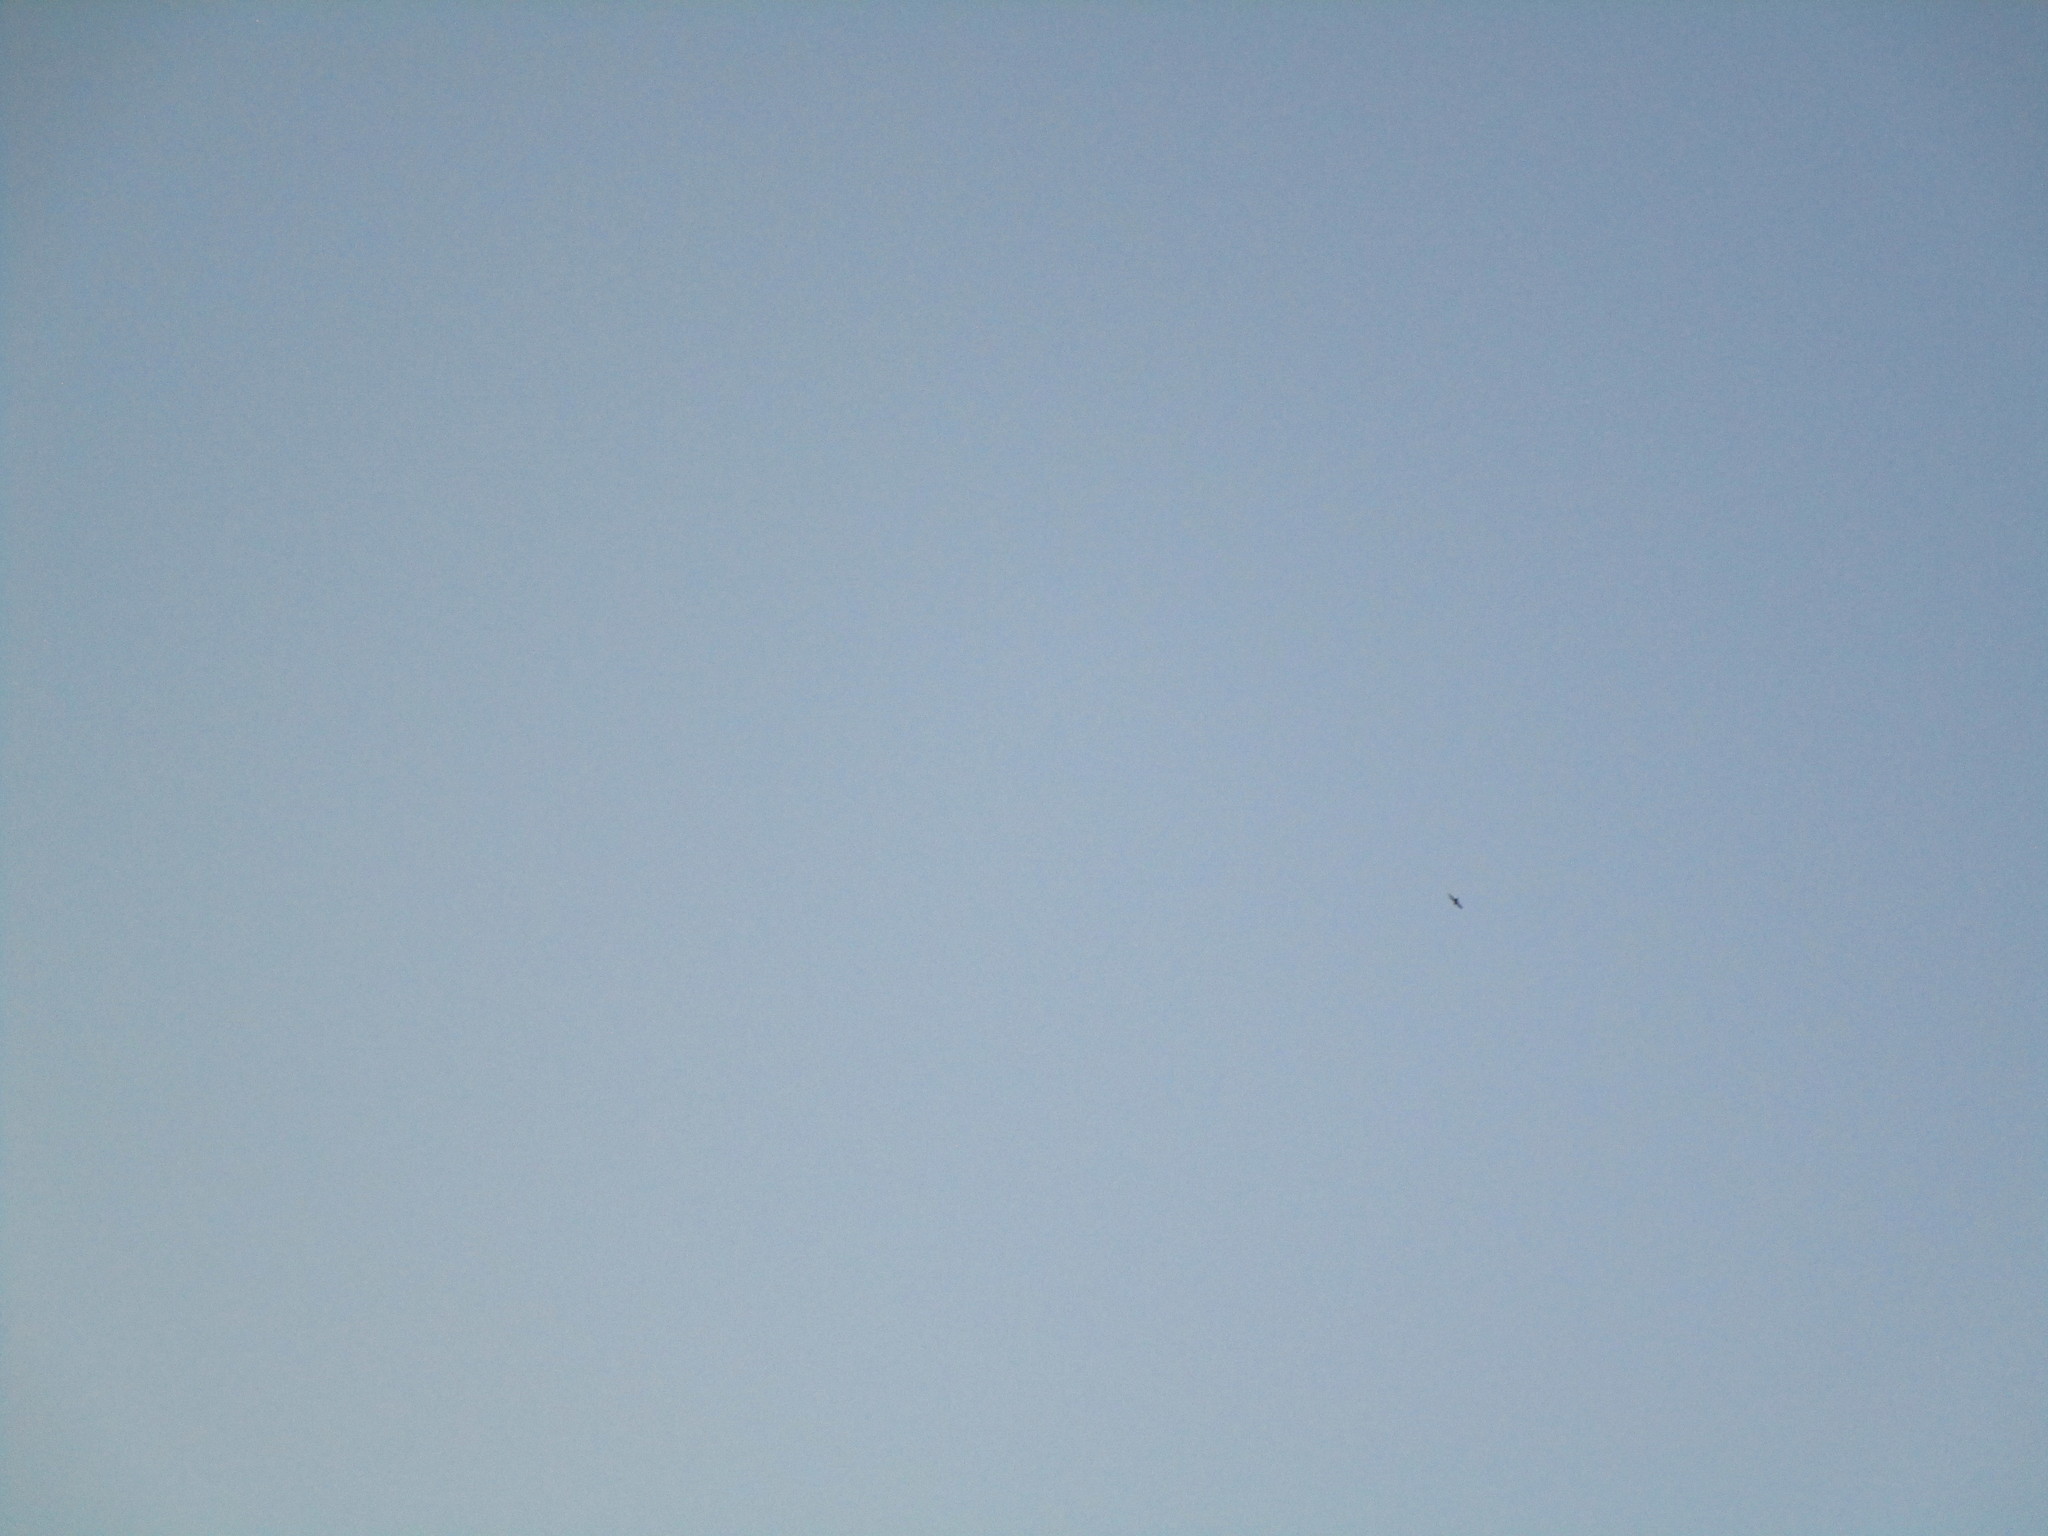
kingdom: Animalia
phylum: Chordata
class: Aves
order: Apodiformes
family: Apodidae
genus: Chaetura
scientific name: Chaetura pelagica
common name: Chimney swift
